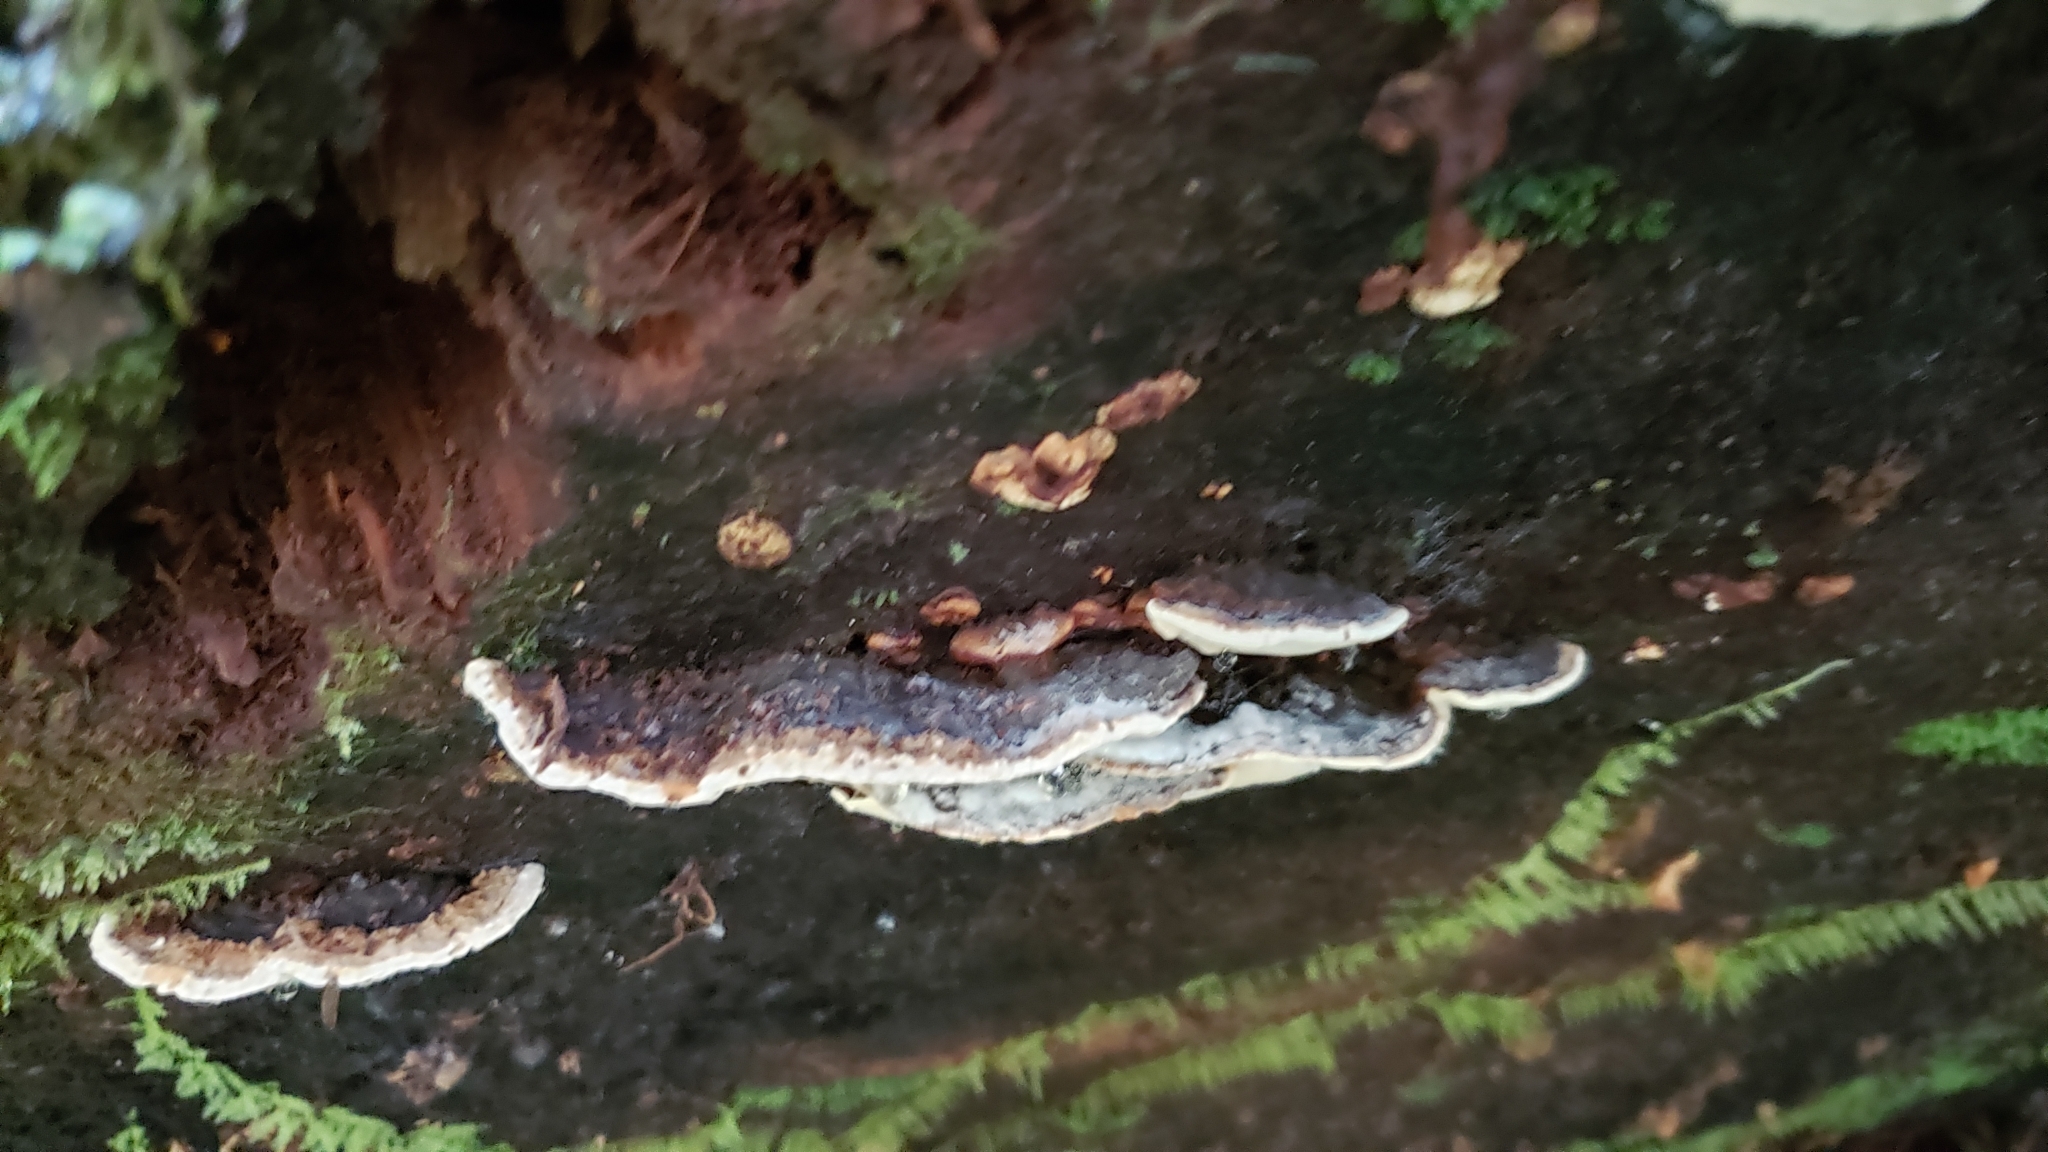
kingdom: Fungi
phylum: Basidiomycota
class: Agaricomycetes
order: Polyporales
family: Fomitopsidaceae
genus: Fomitopsis
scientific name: Fomitopsis ochracea
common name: American brown fomitopsis
